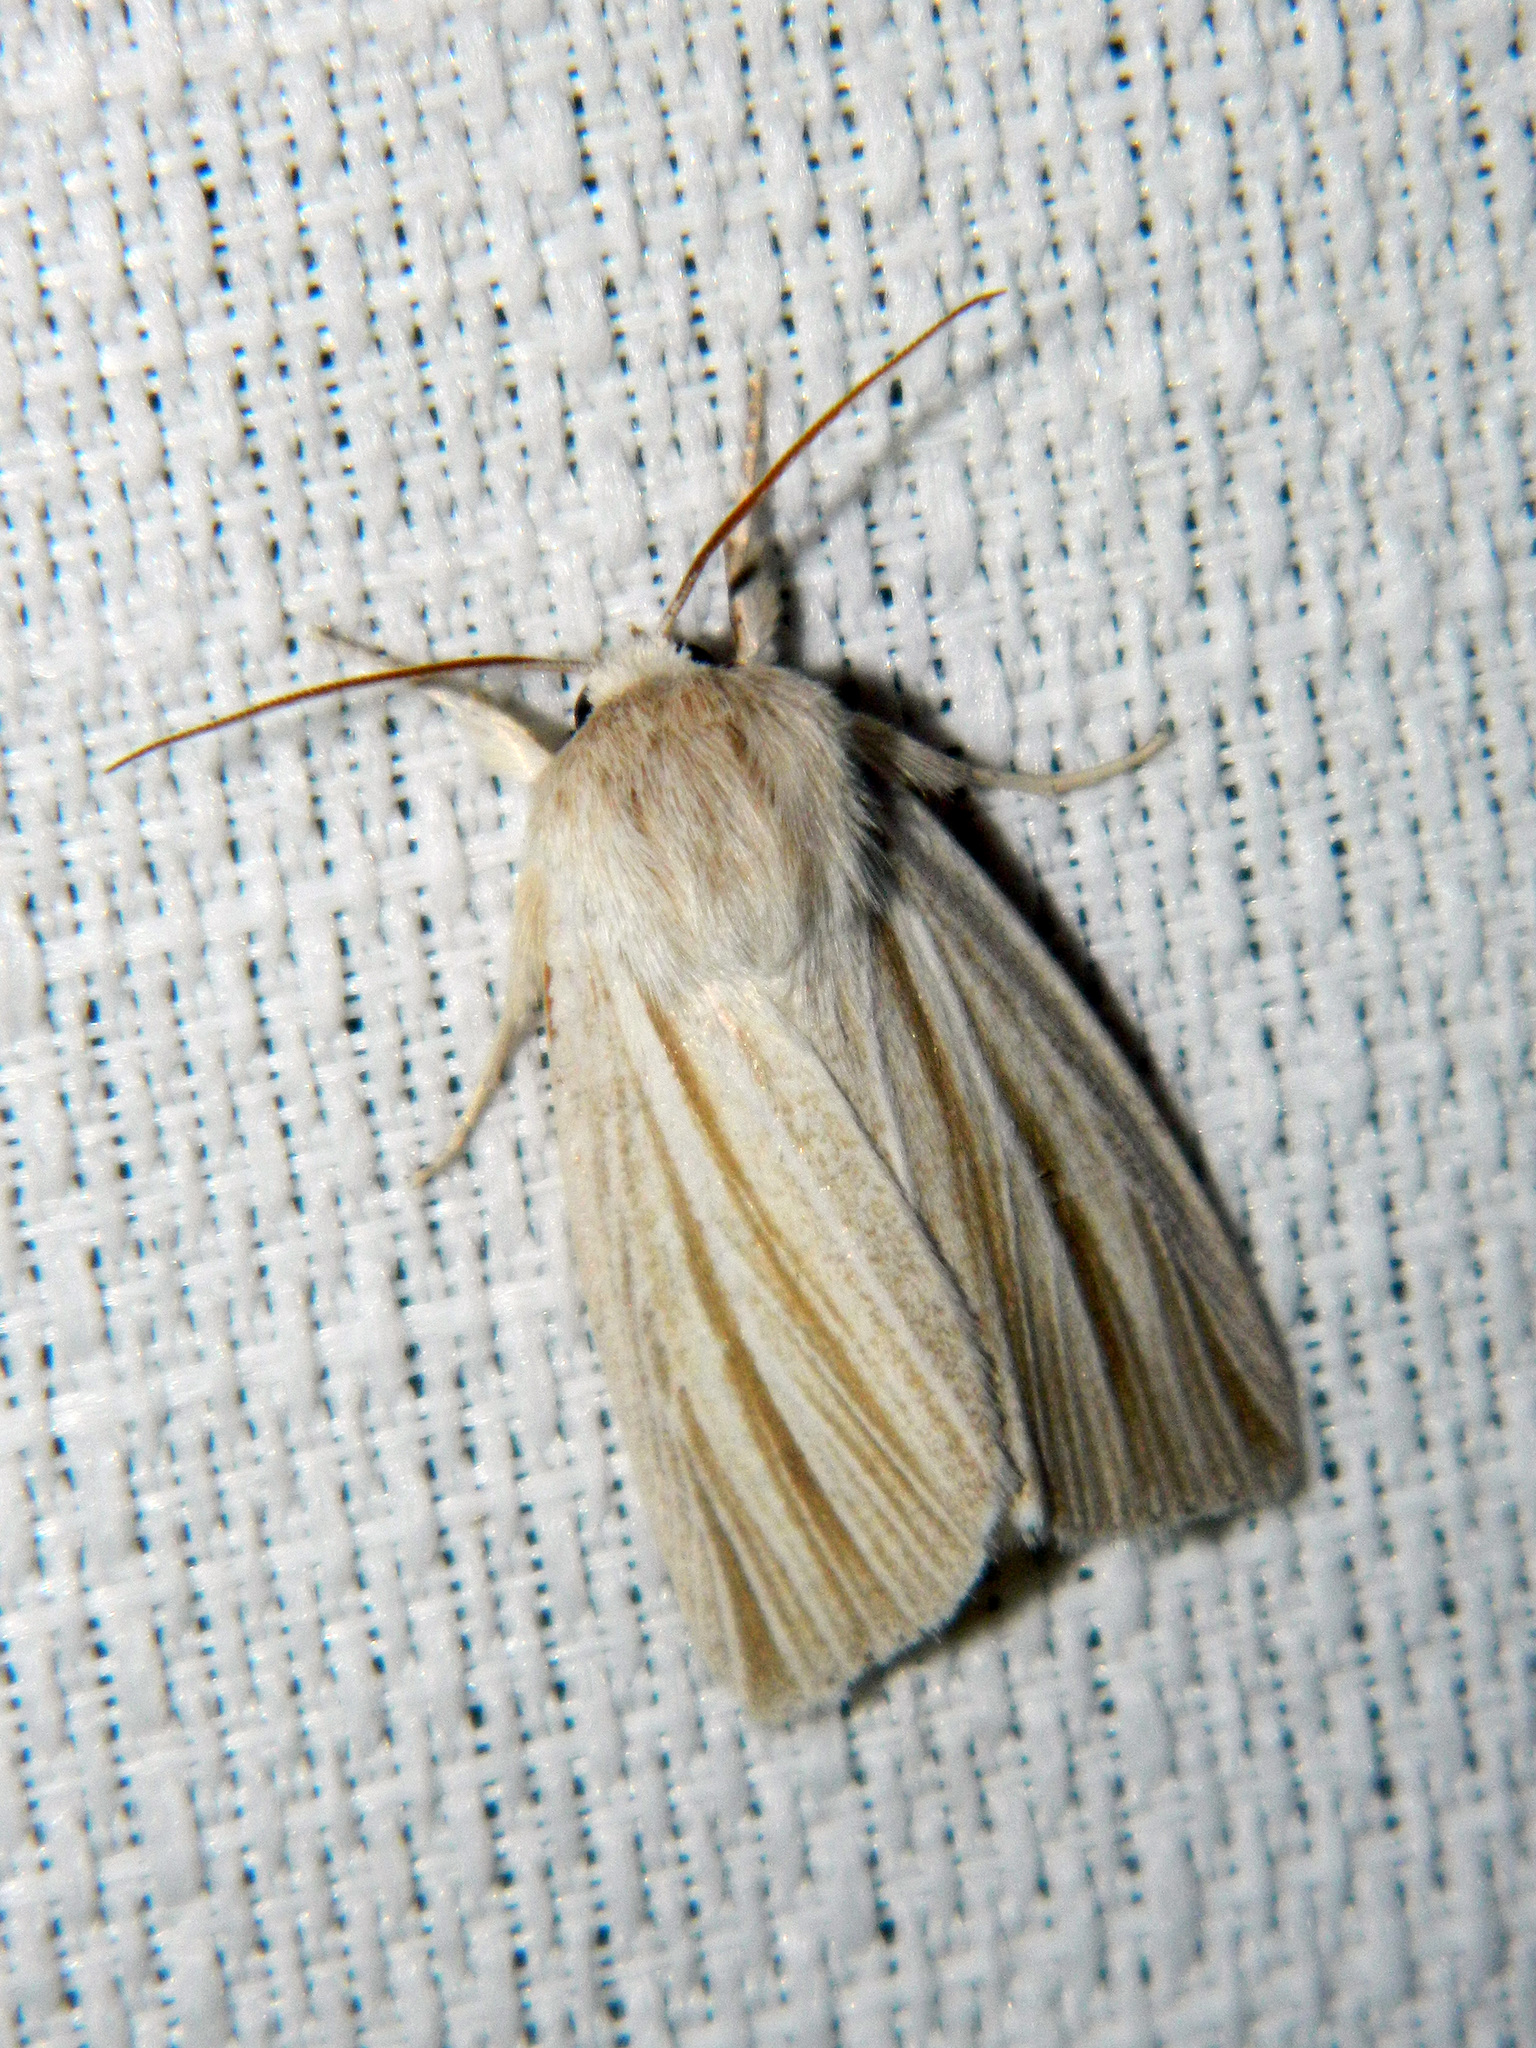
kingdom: Animalia
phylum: Arthropoda
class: Insecta
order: Lepidoptera
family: Noctuidae
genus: Acronicta
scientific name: Acronicta insularis
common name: Henry's marsh moth
